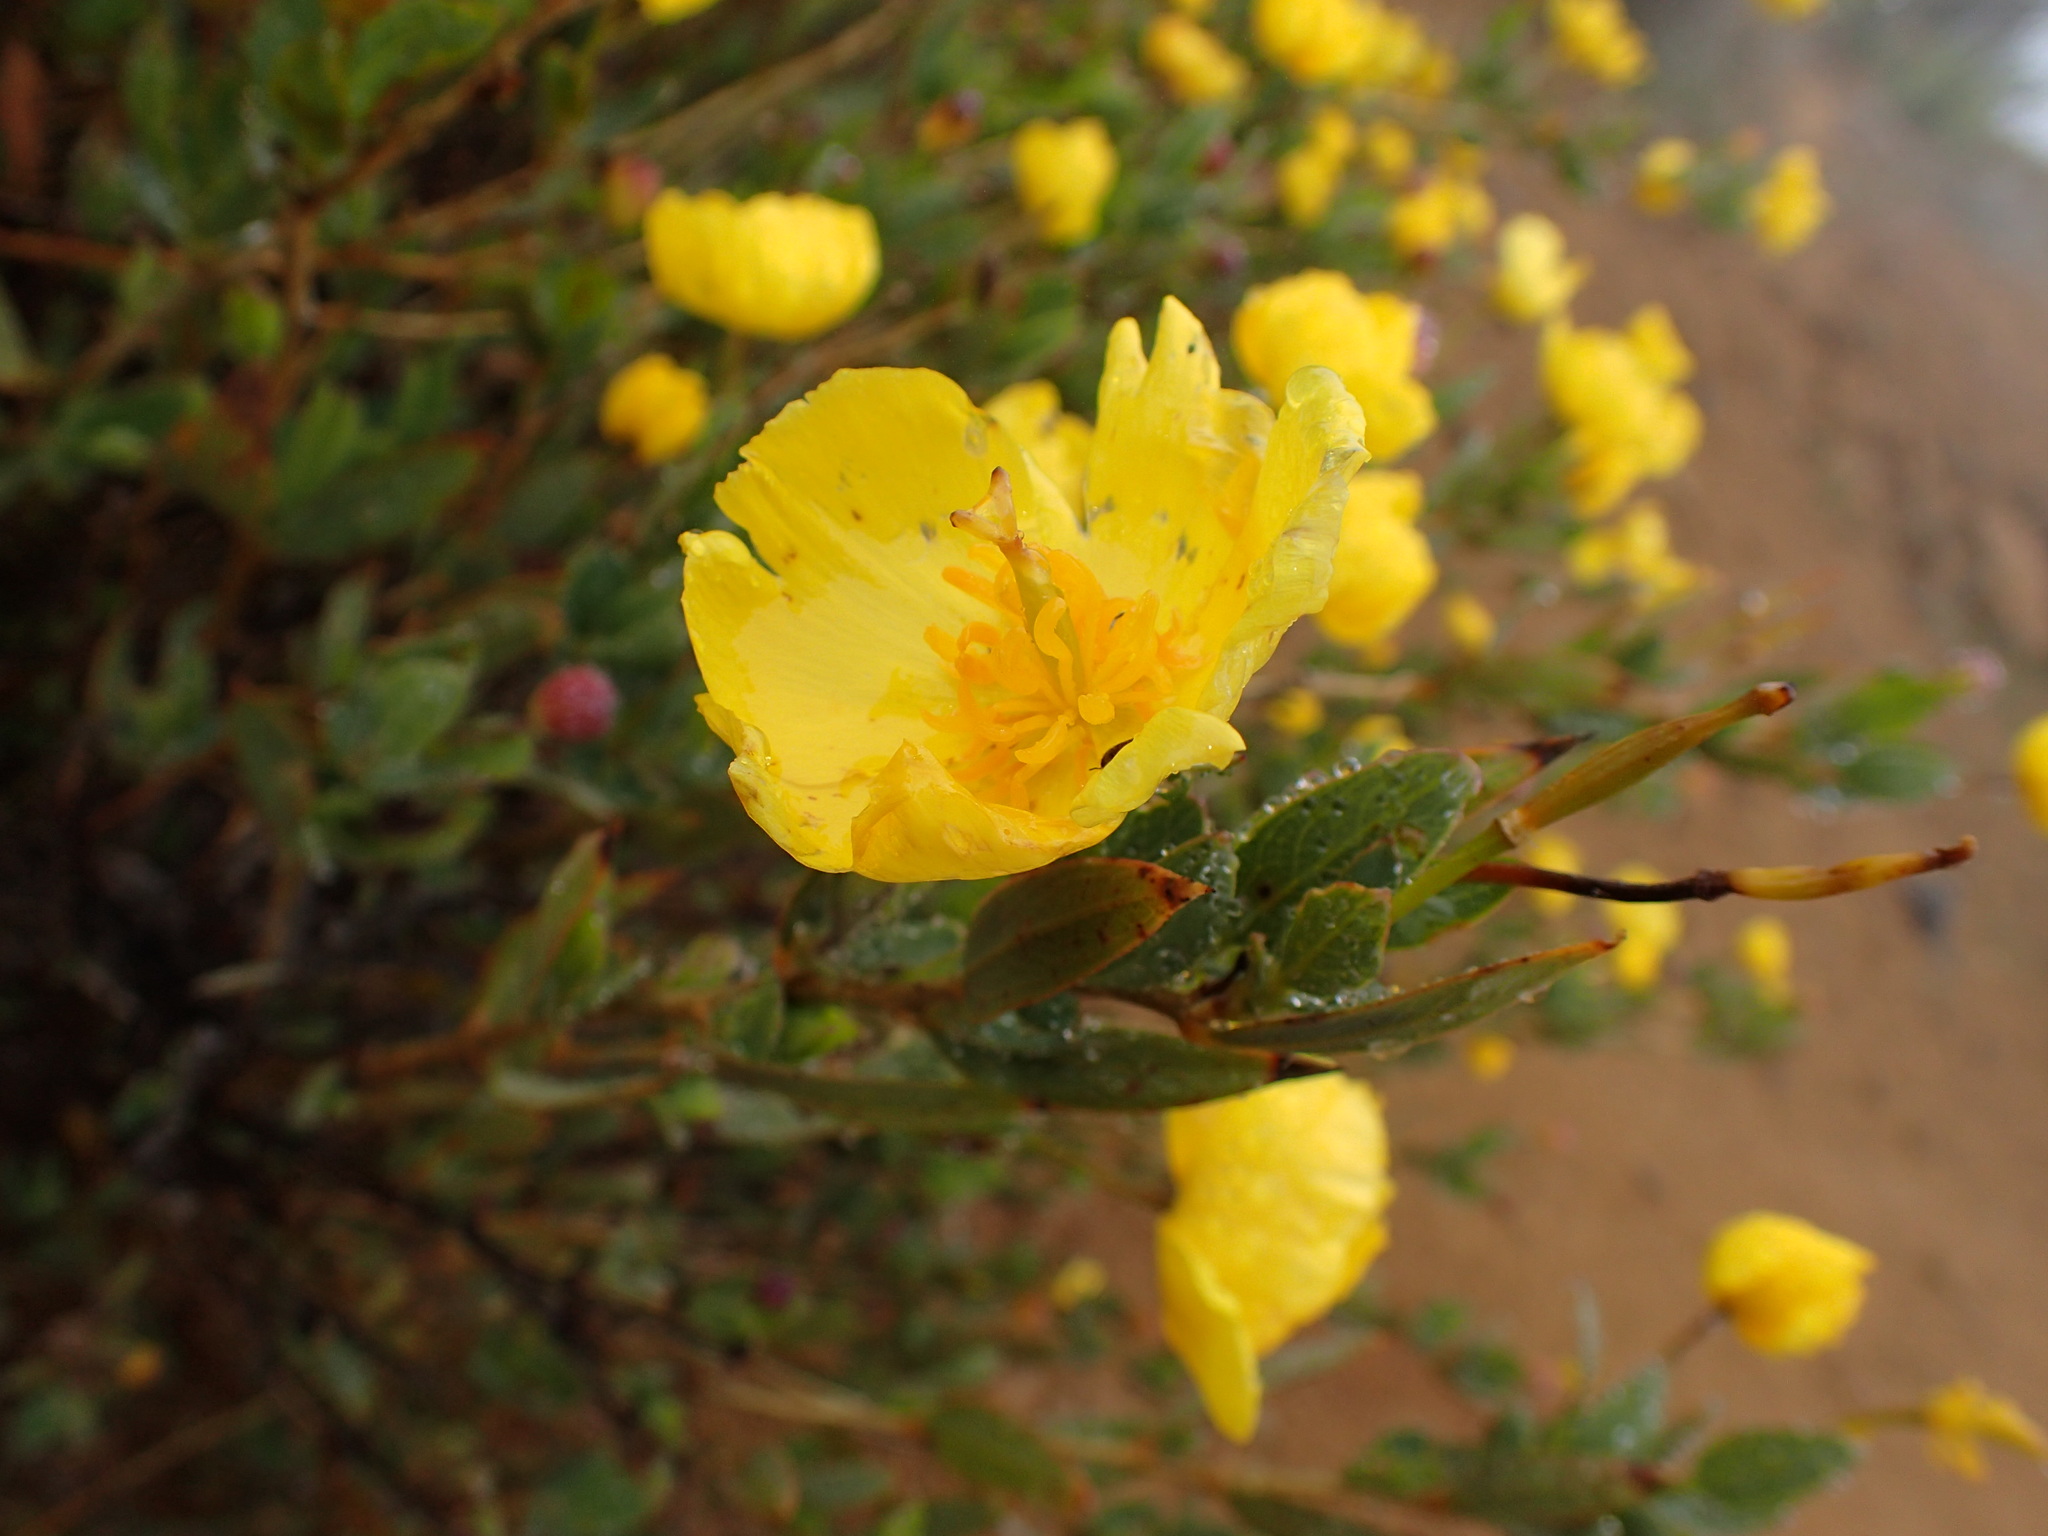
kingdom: Plantae
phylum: Tracheophyta
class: Magnoliopsida
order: Ranunculales
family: Papaveraceae
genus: Dendromecon
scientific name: Dendromecon rigida
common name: Tree poppy
